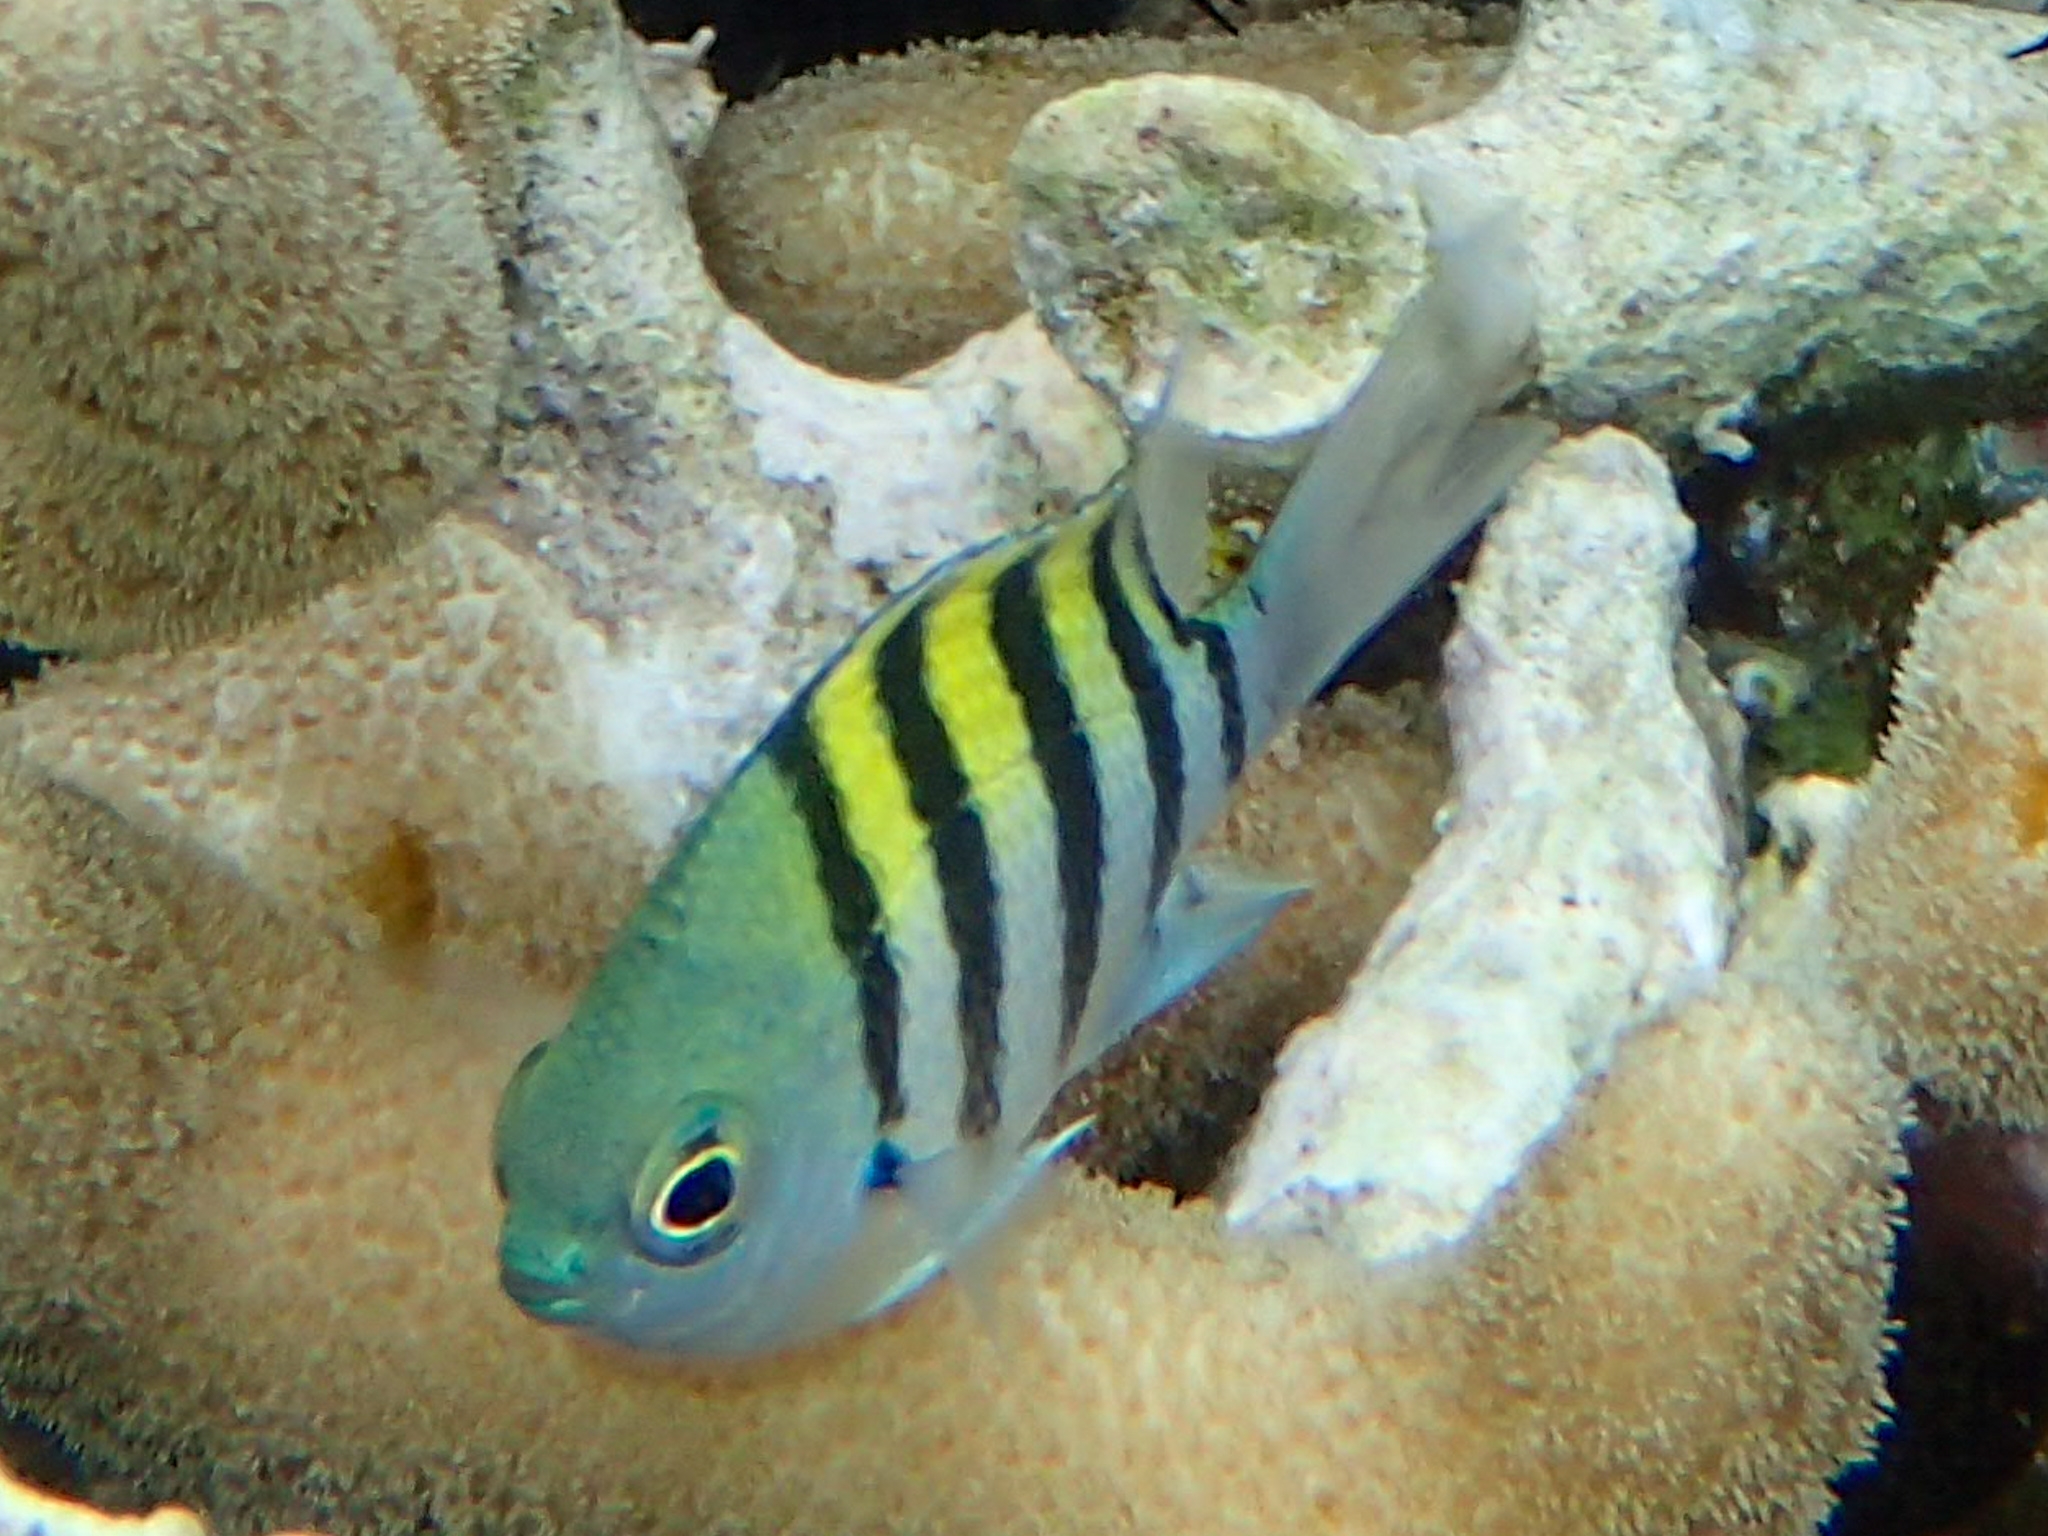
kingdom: Animalia
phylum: Chordata
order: Perciformes
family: Pomacentridae
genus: Abudefduf
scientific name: Abudefduf saxatilis
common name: Sergeant major
